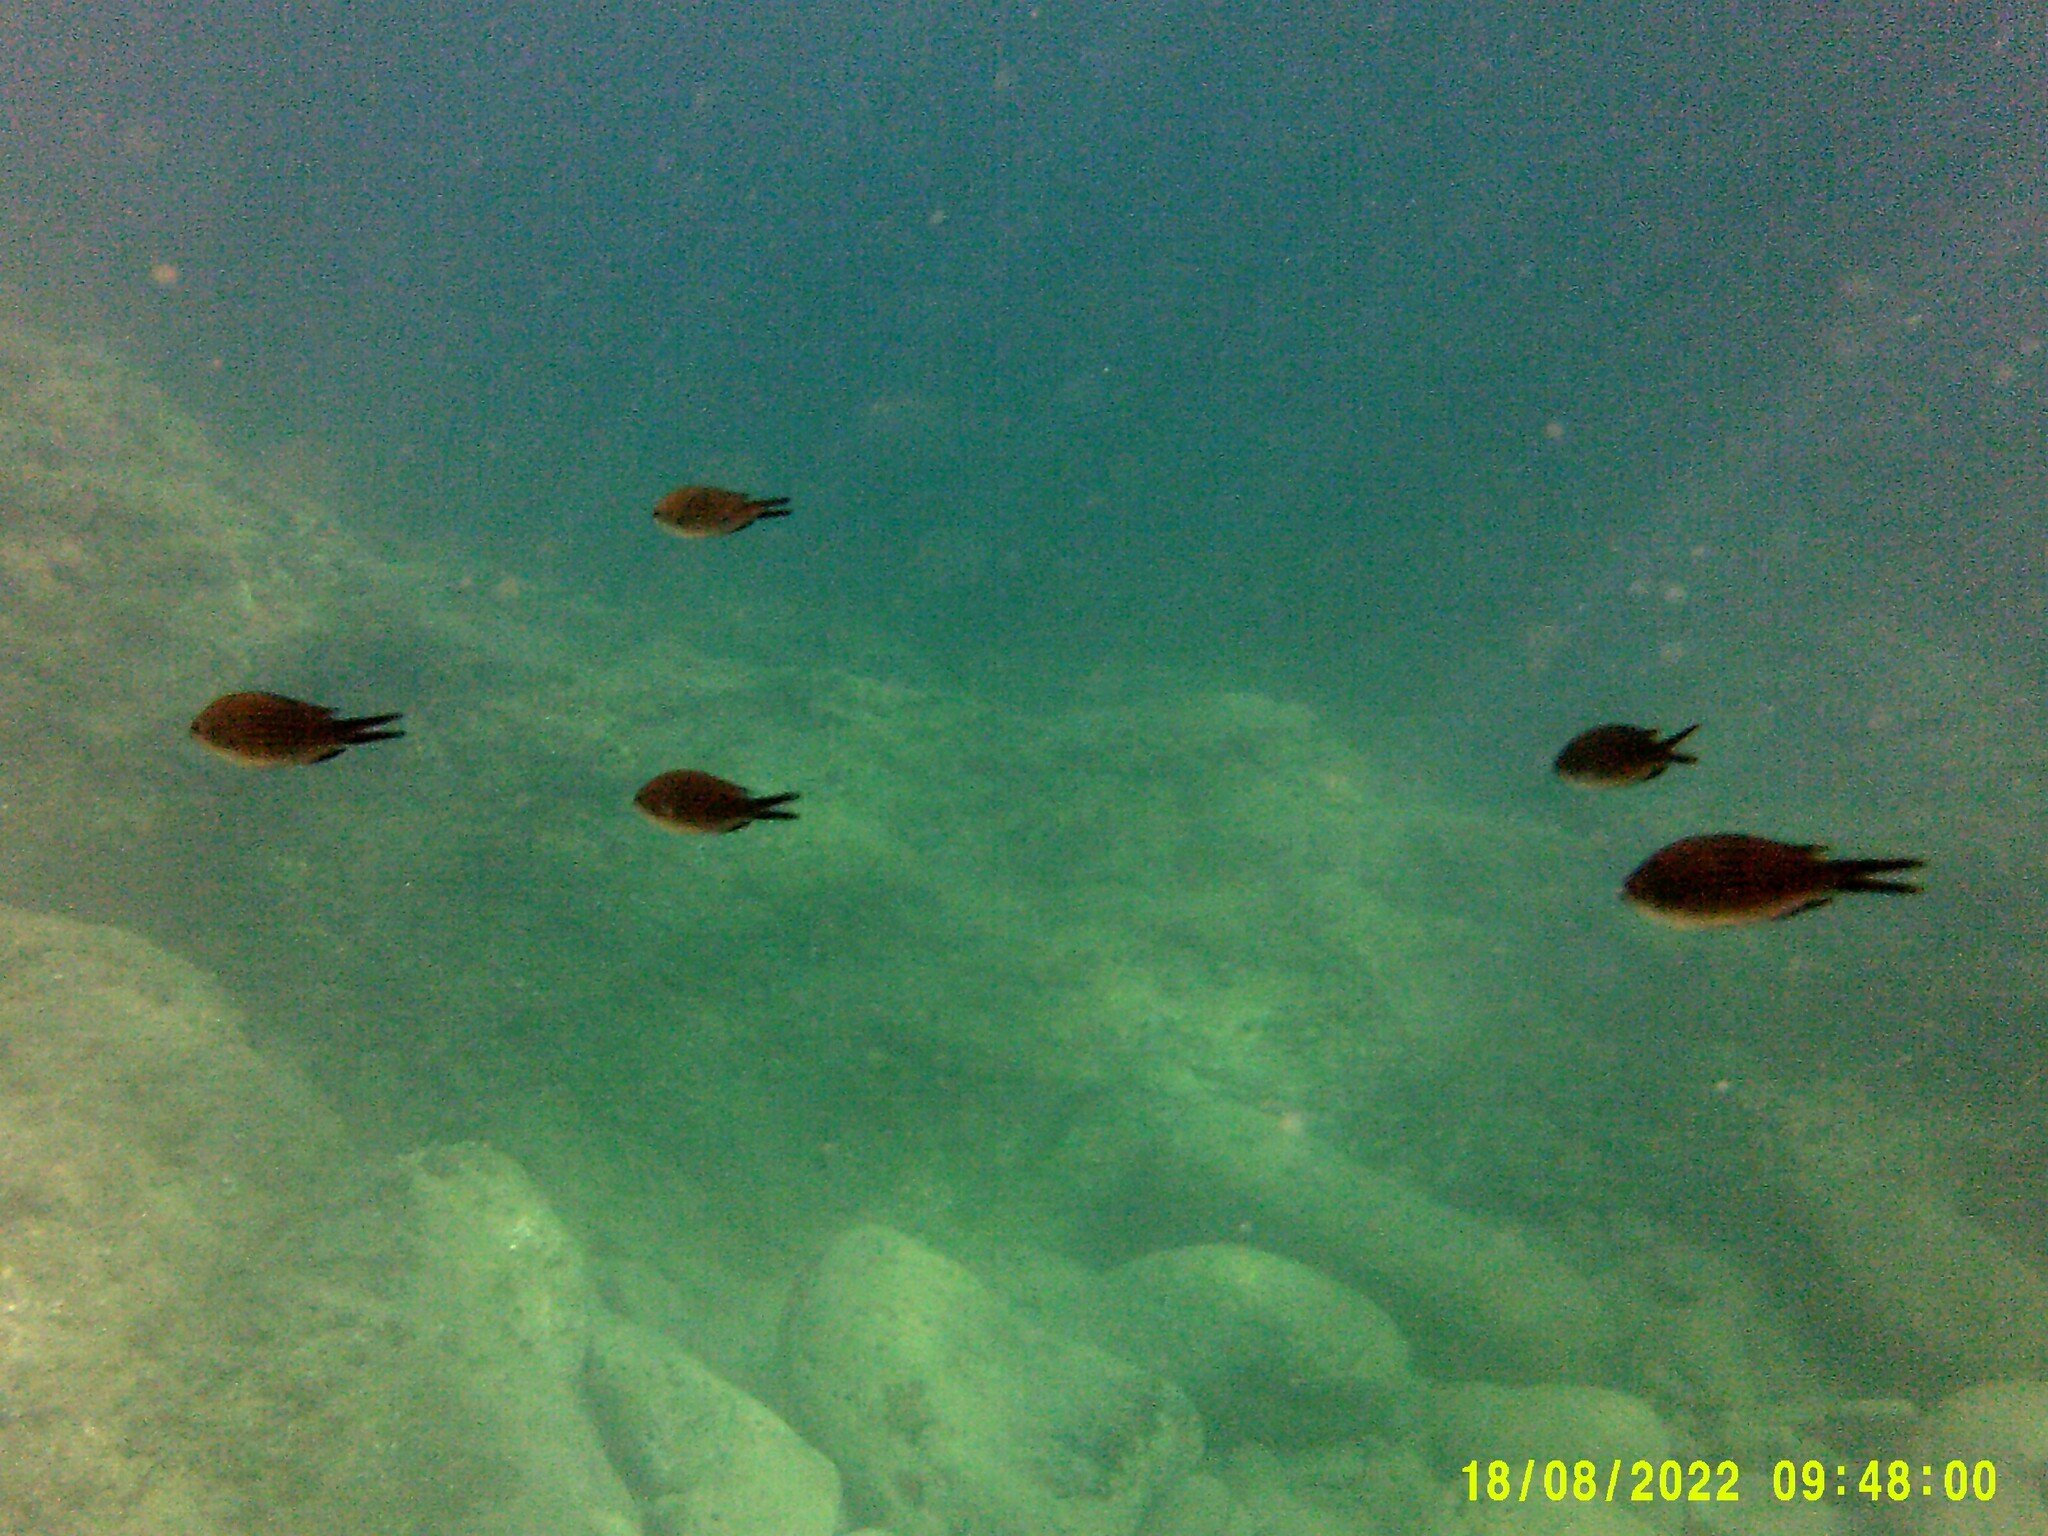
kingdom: Animalia
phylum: Chordata
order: Perciformes
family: Pomacentridae
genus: Chromis
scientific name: Chromis chromis
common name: Damselfish
